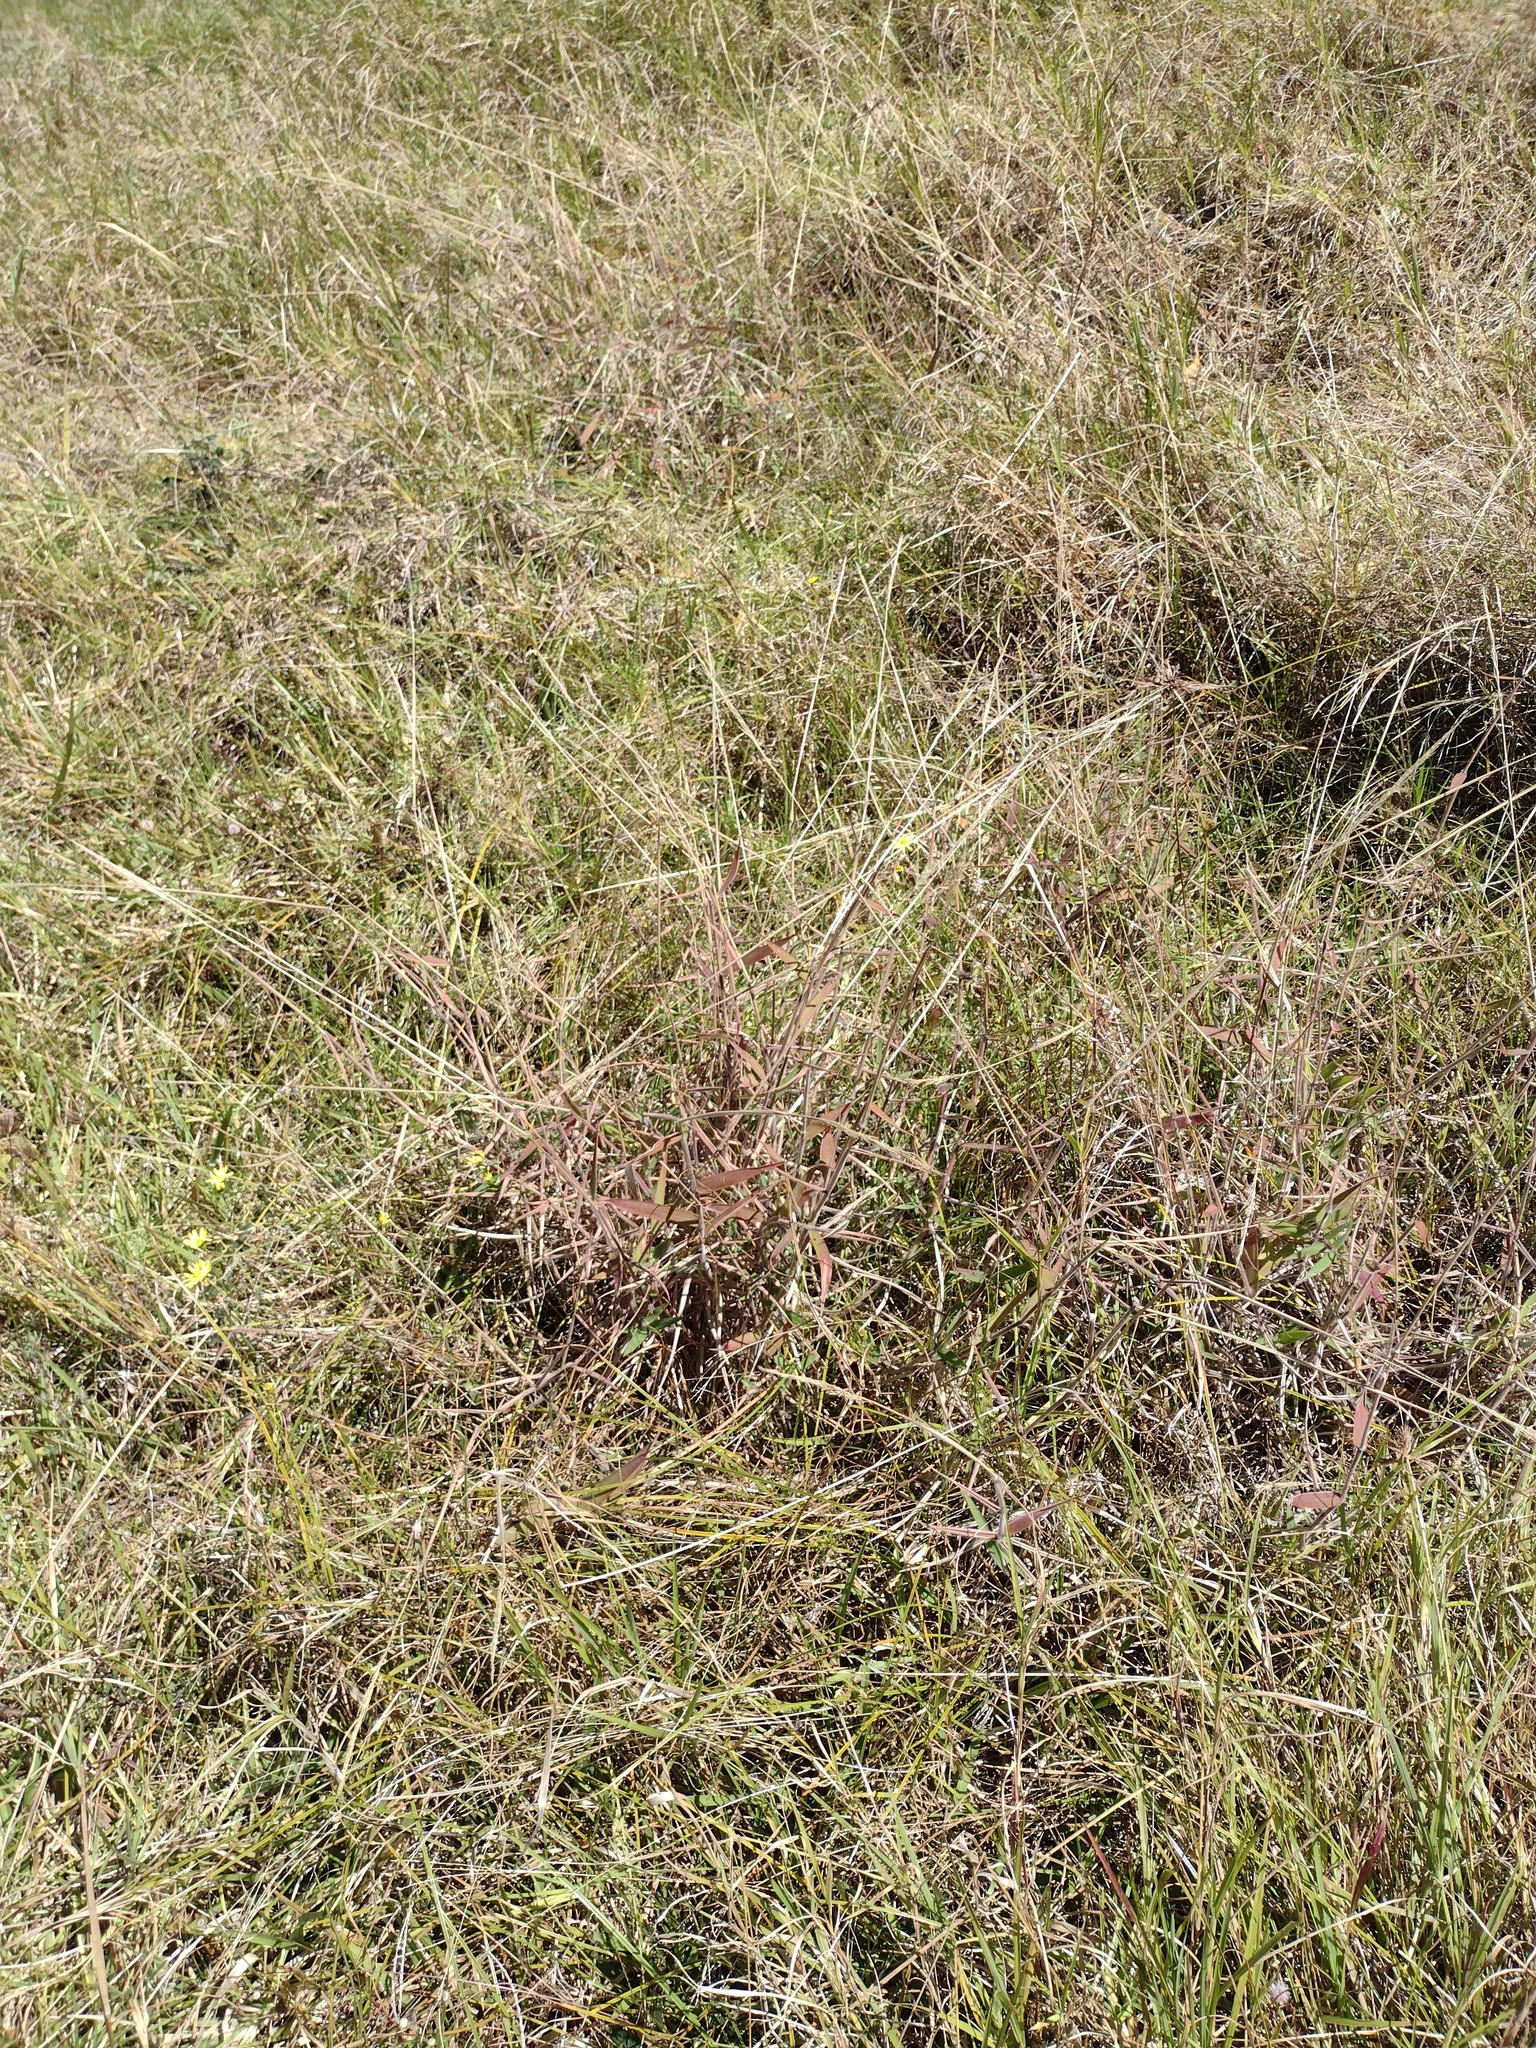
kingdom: Plantae
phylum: Tracheophyta
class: Liliopsida
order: Poales
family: Poaceae
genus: Melinis
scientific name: Melinis minutiflora
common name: Molassesgrass
